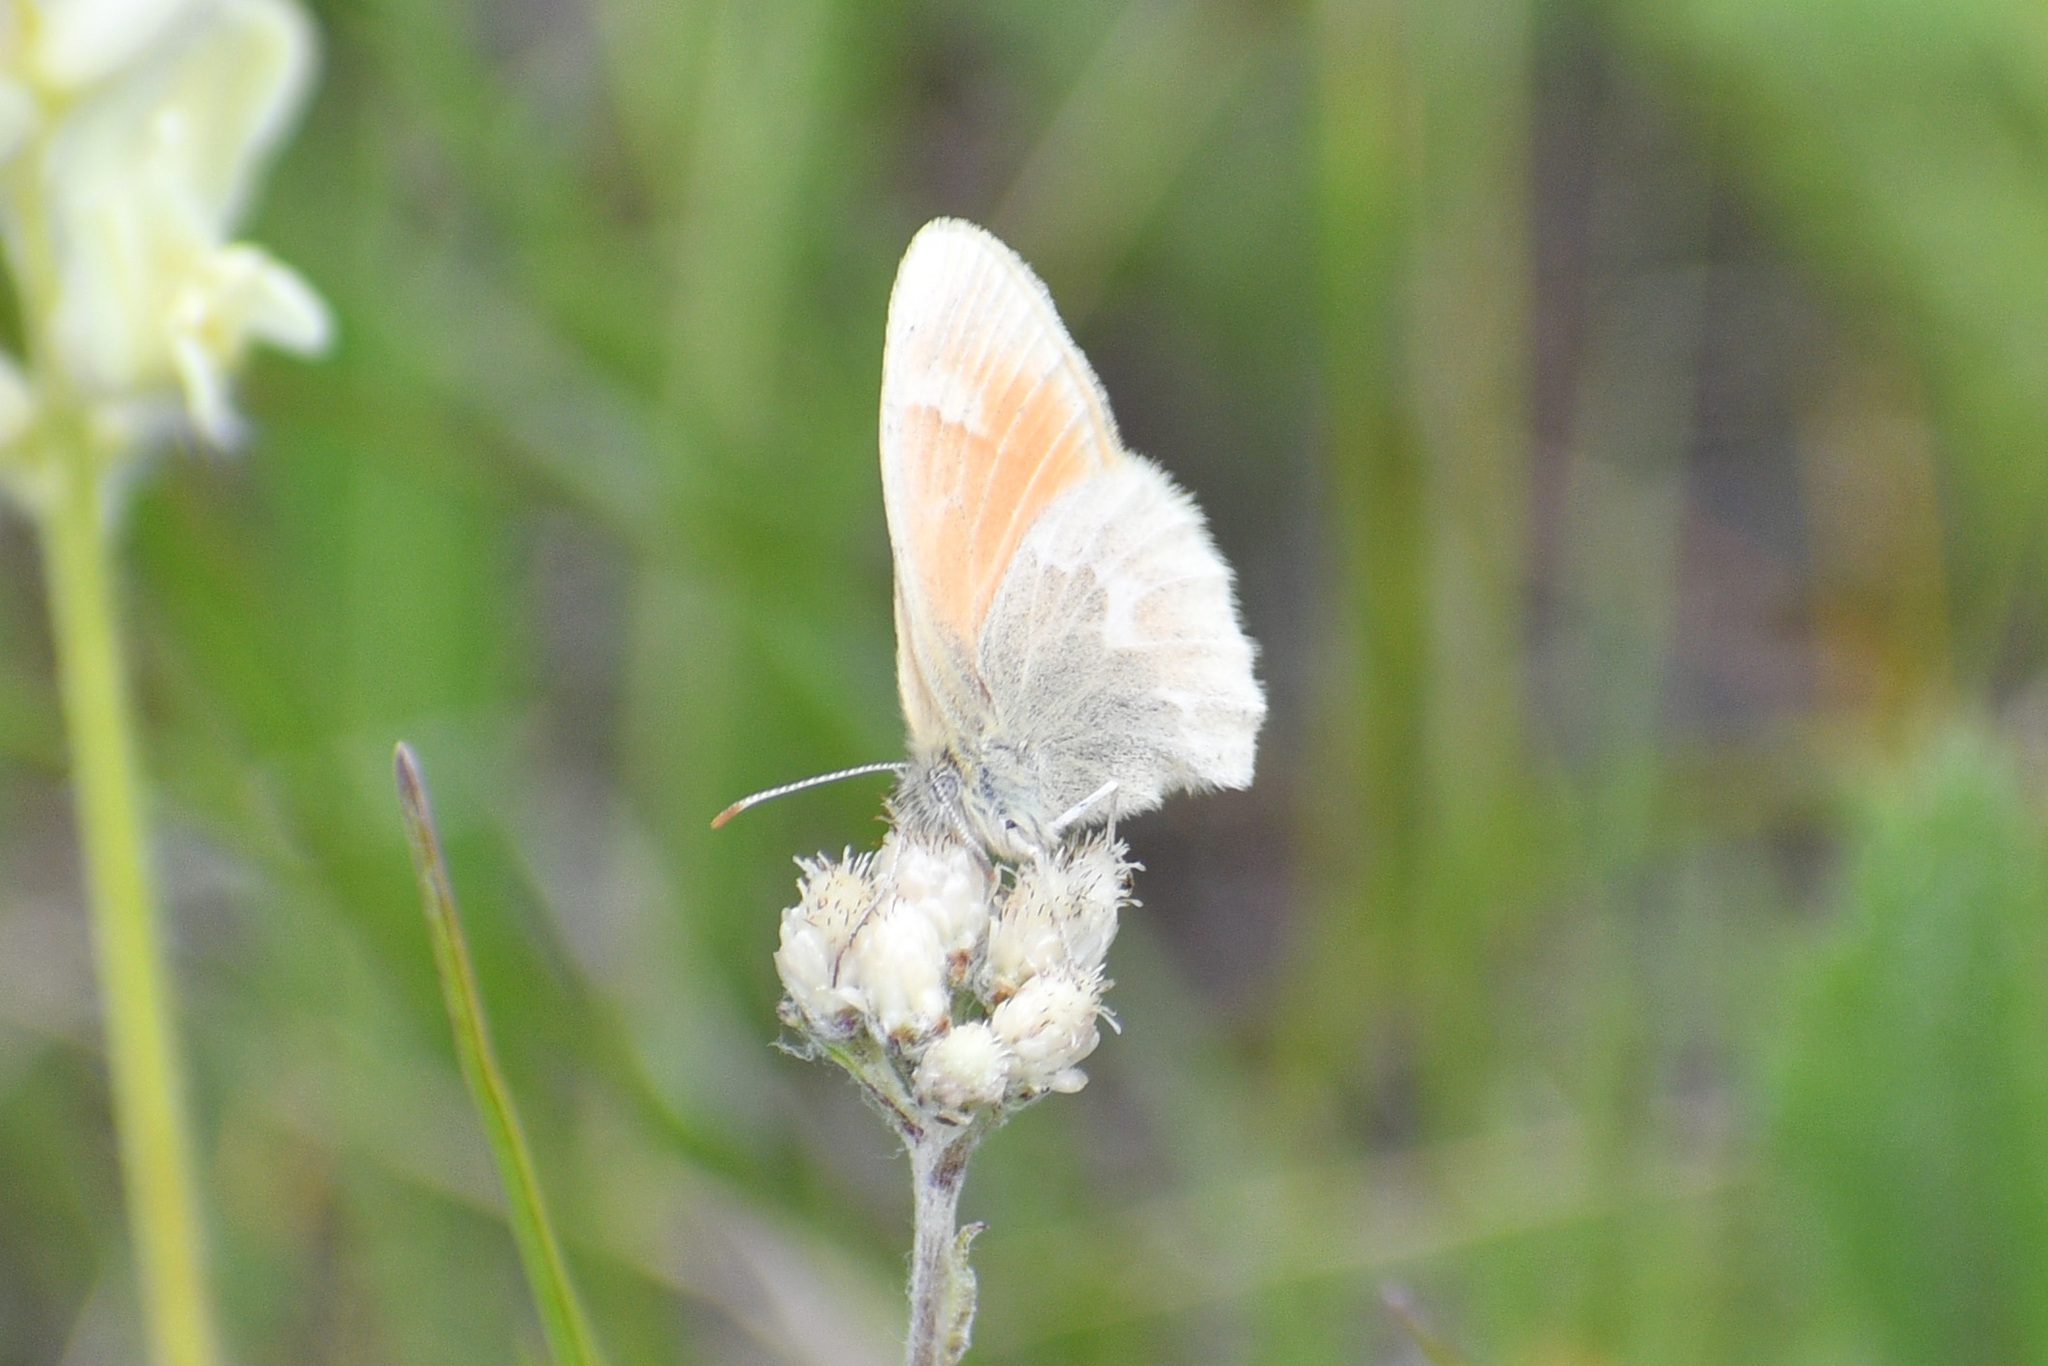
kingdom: Animalia
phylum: Arthropoda
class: Insecta
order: Lepidoptera
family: Nymphalidae
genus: Coenonympha
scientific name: Coenonympha california
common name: Common ringlet
